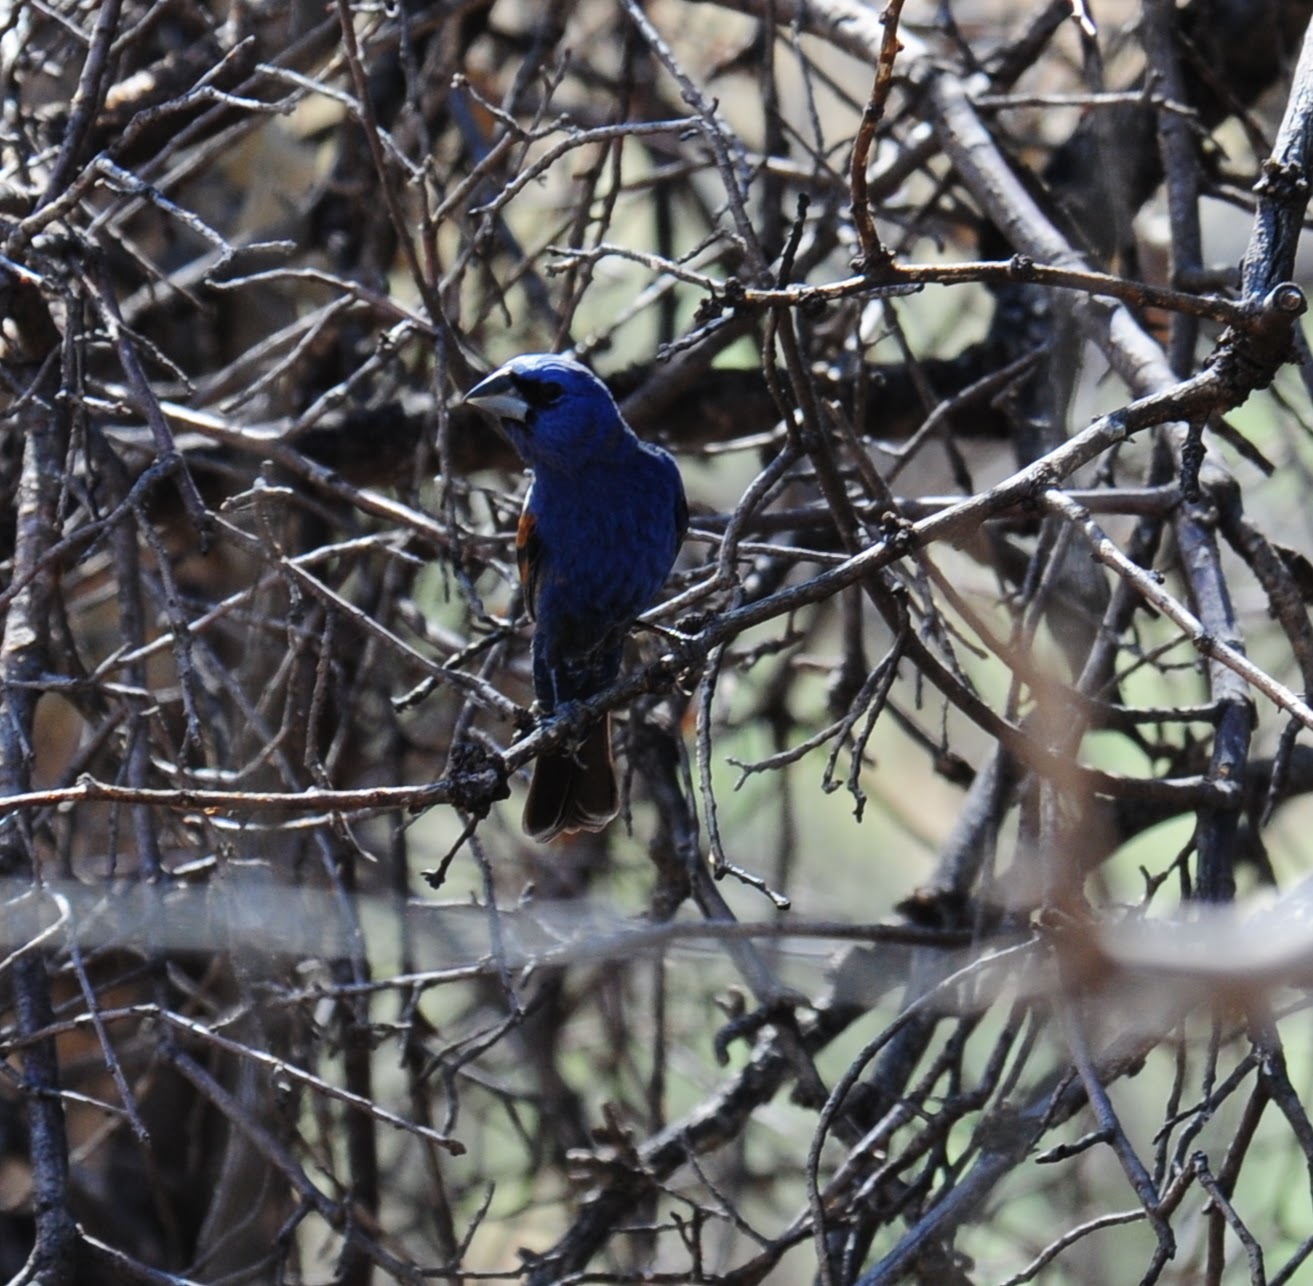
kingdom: Animalia
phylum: Chordata
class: Aves
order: Passeriformes
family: Cardinalidae
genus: Passerina
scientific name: Passerina caerulea
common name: Blue grosbeak
